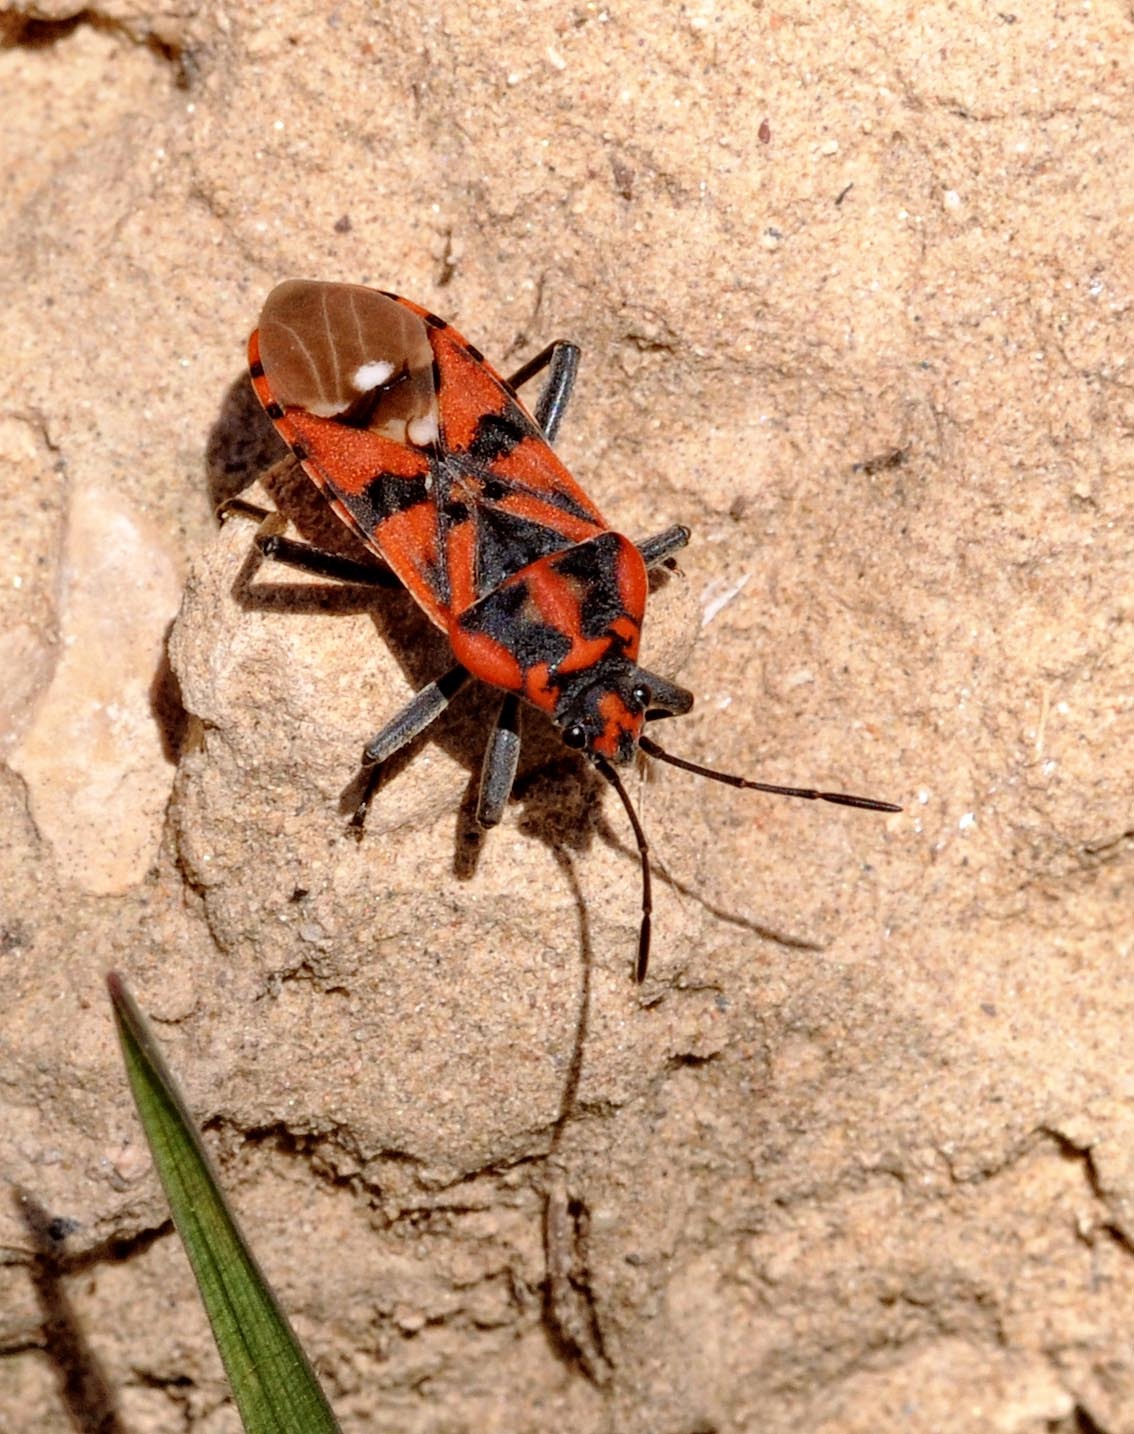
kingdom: Animalia
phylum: Arthropoda
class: Insecta
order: Hemiptera
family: Lygaeidae
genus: Spilostethus
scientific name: Spilostethus pandurus
